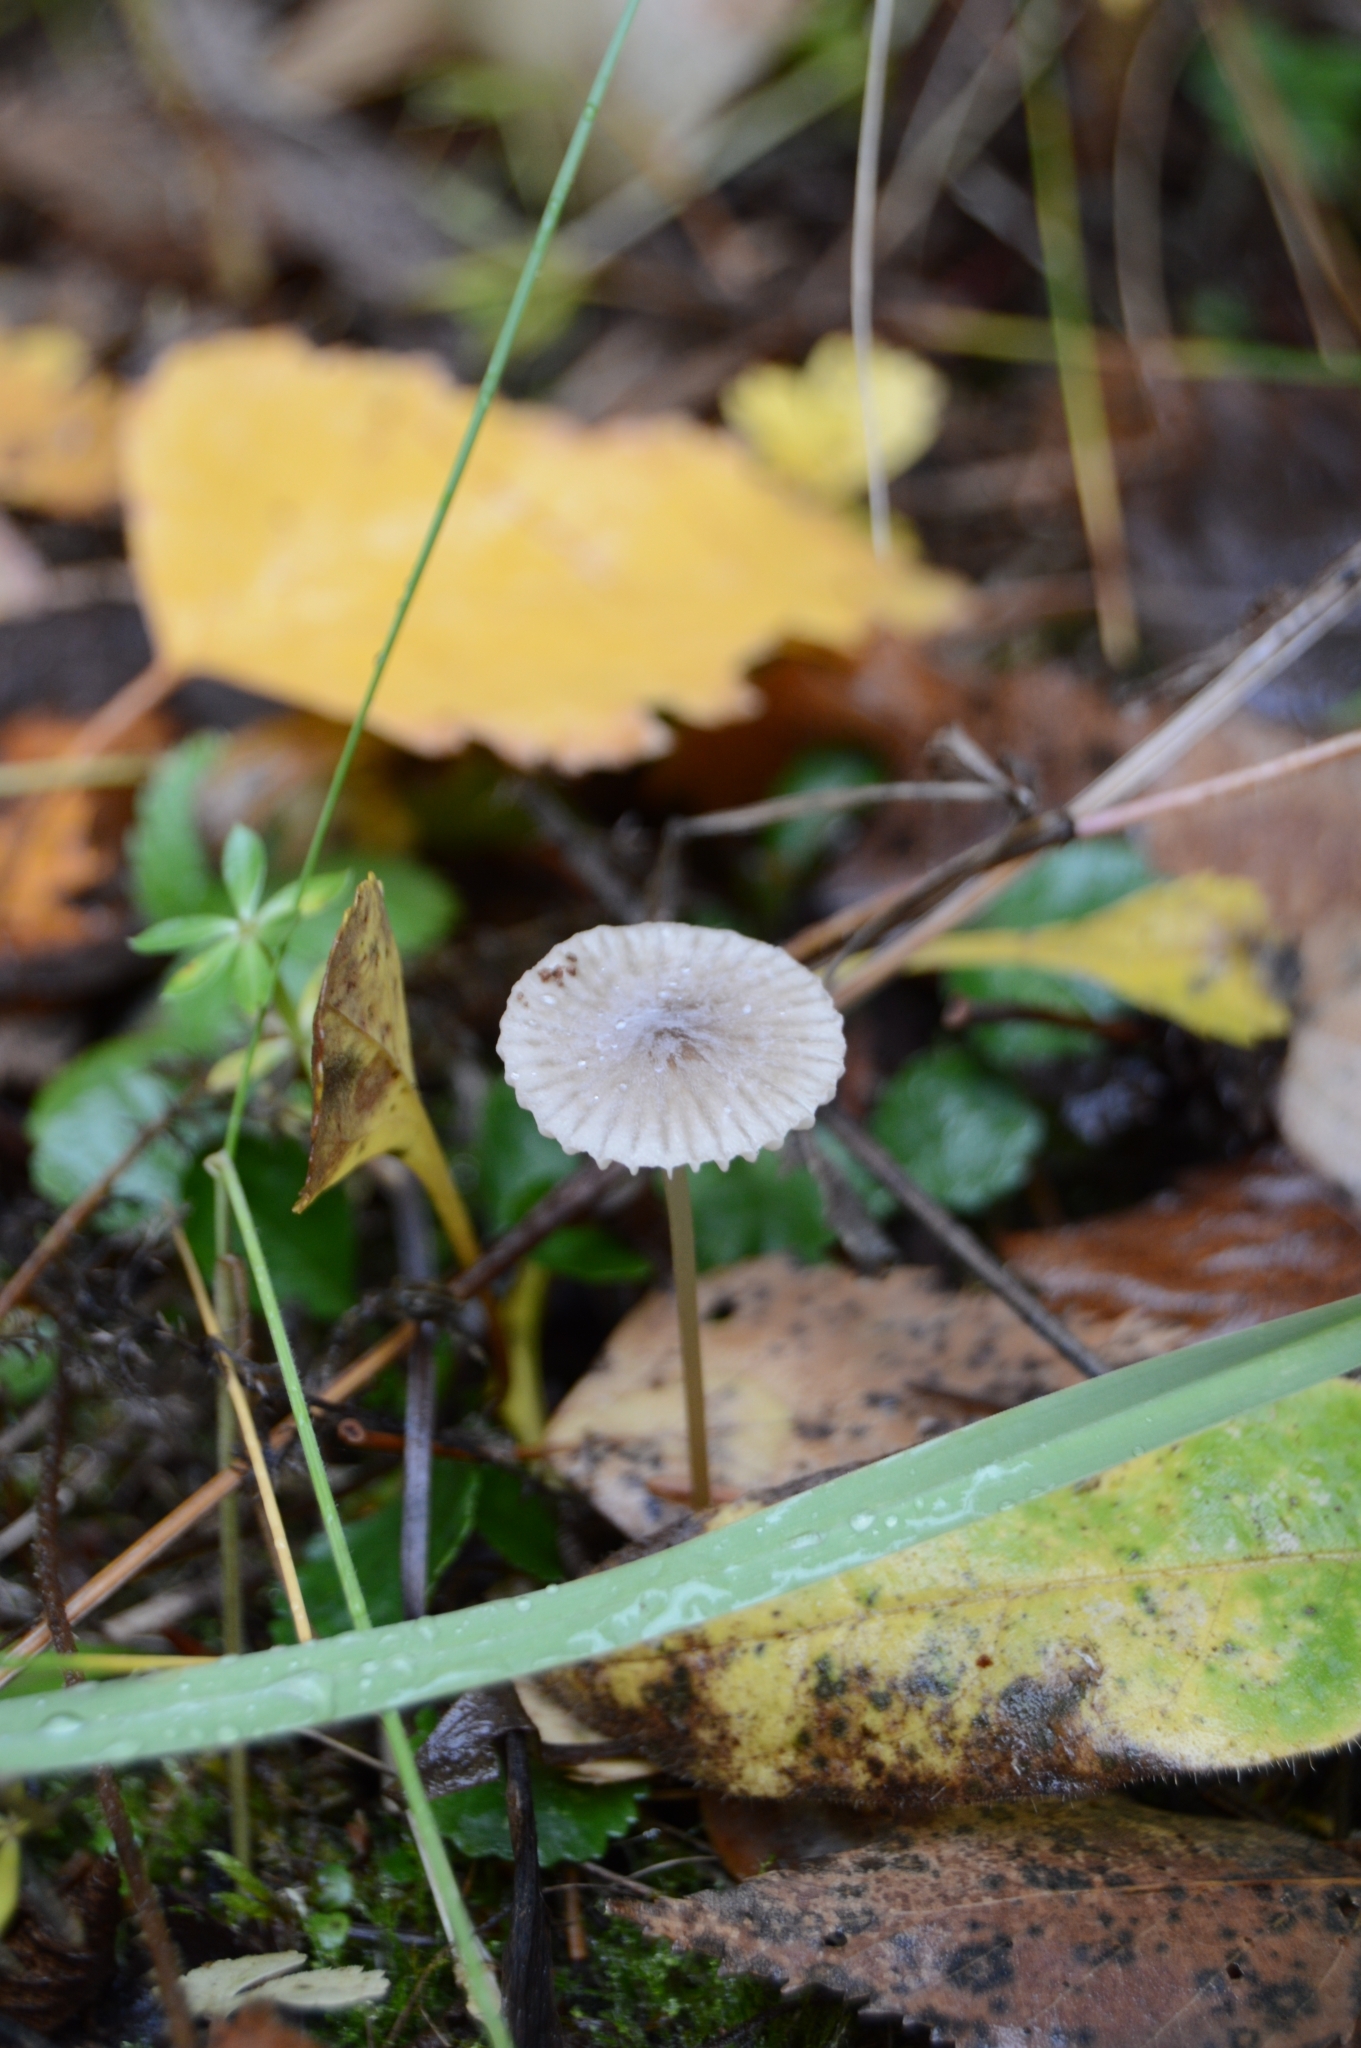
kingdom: Fungi
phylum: Basidiomycota
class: Agaricomycetes
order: Agaricales
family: Mycenaceae
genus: Mycena
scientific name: Mycena galopus
